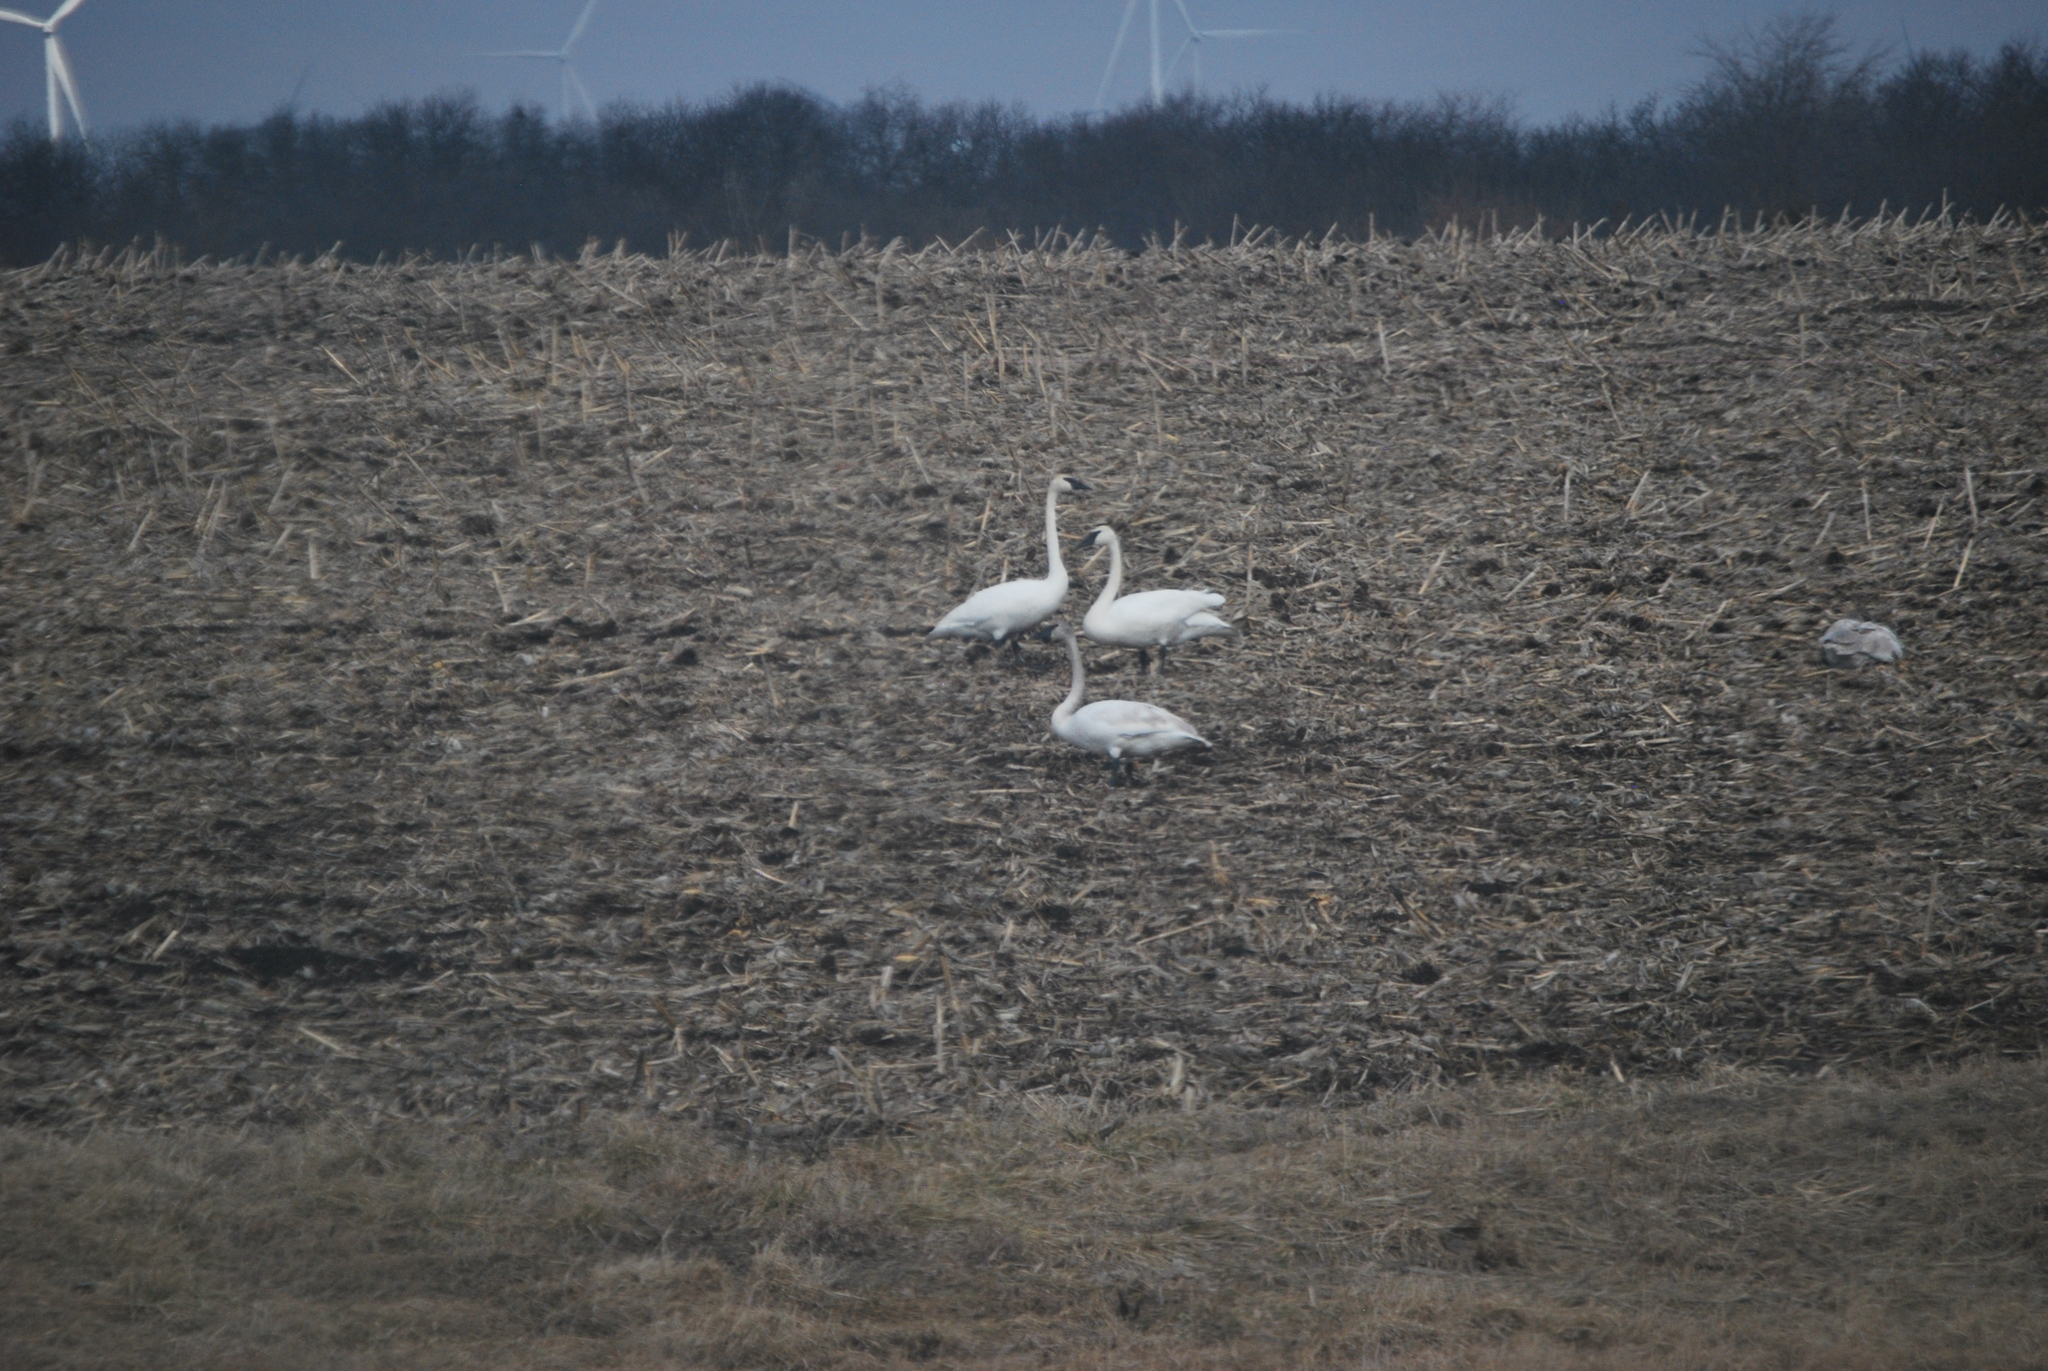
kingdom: Animalia
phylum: Chordata
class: Aves
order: Anseriformes
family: Anatidae
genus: Cygnus
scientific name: Cygnus buccinator
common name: Trumpeter swan
